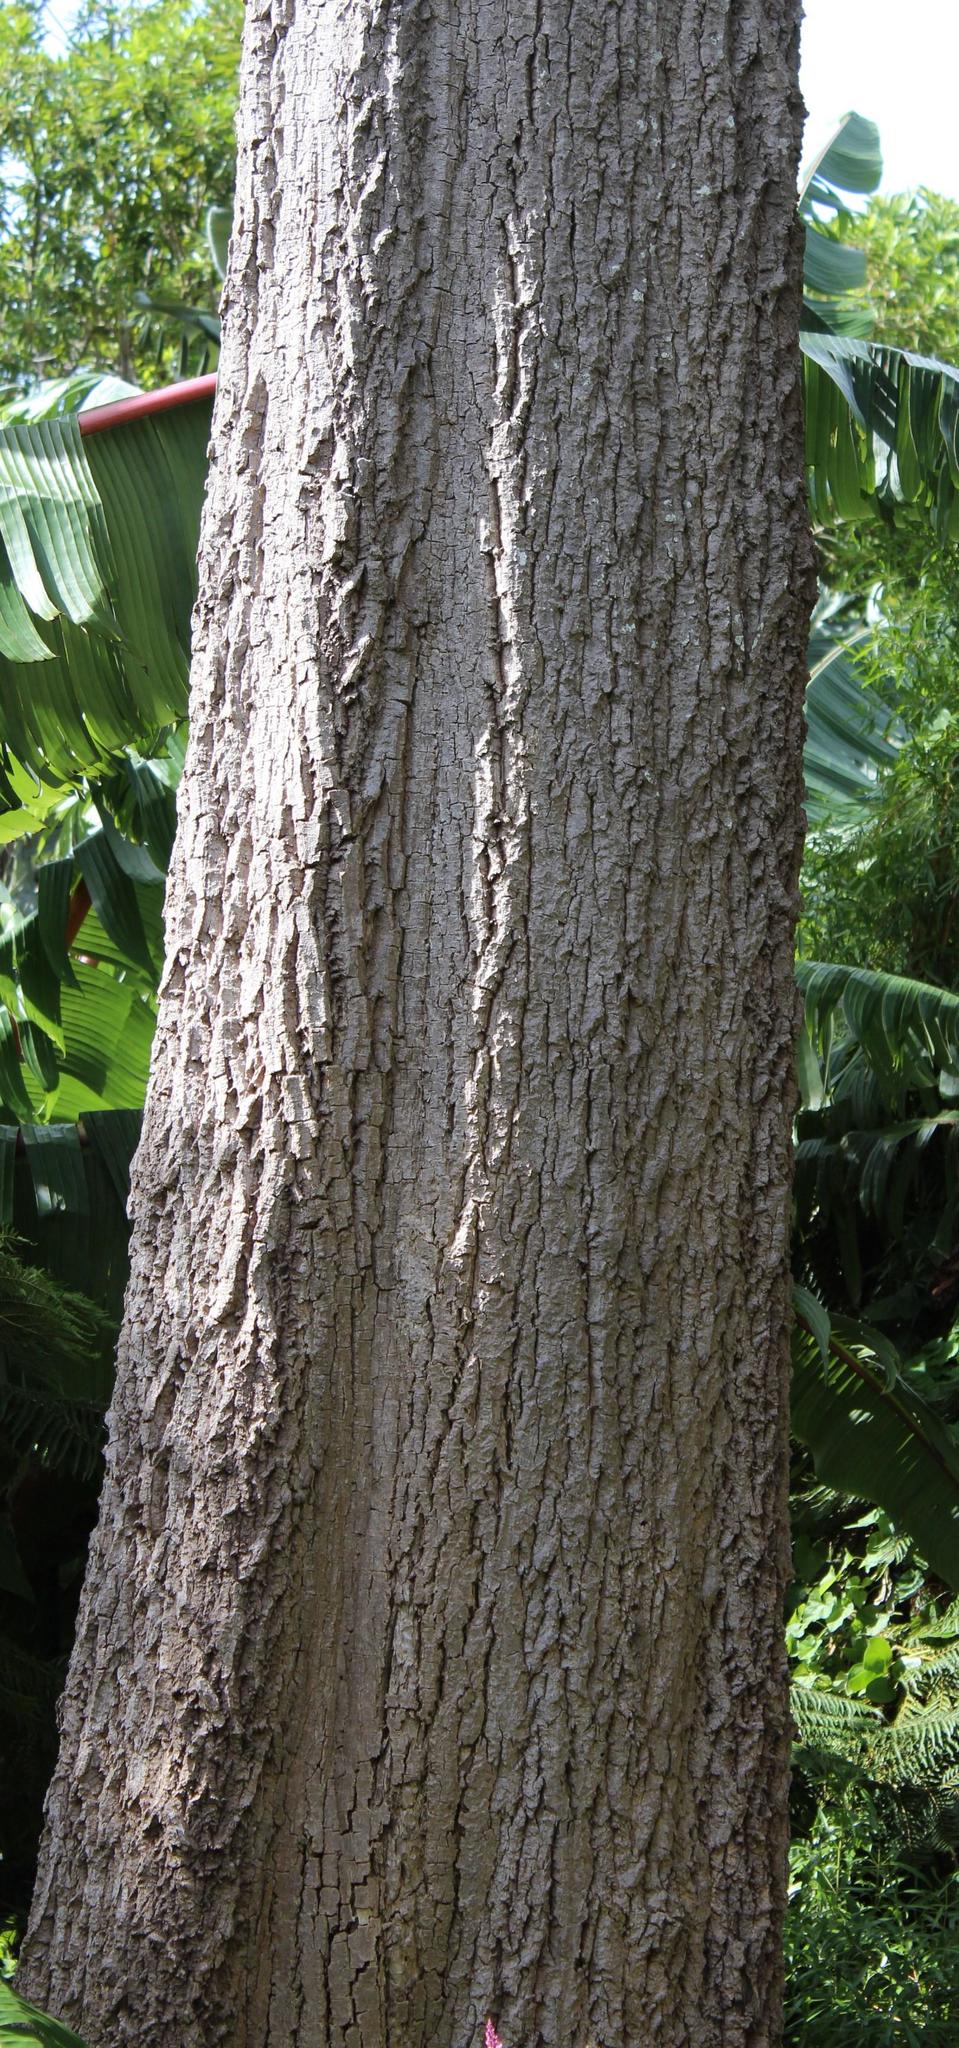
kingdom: Plantae
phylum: Tracheophyta
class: Magnoliopsida
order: Apiales
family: Araliaceae
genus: Cussonia
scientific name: Cussonia spicata
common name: Common cabbagetree
